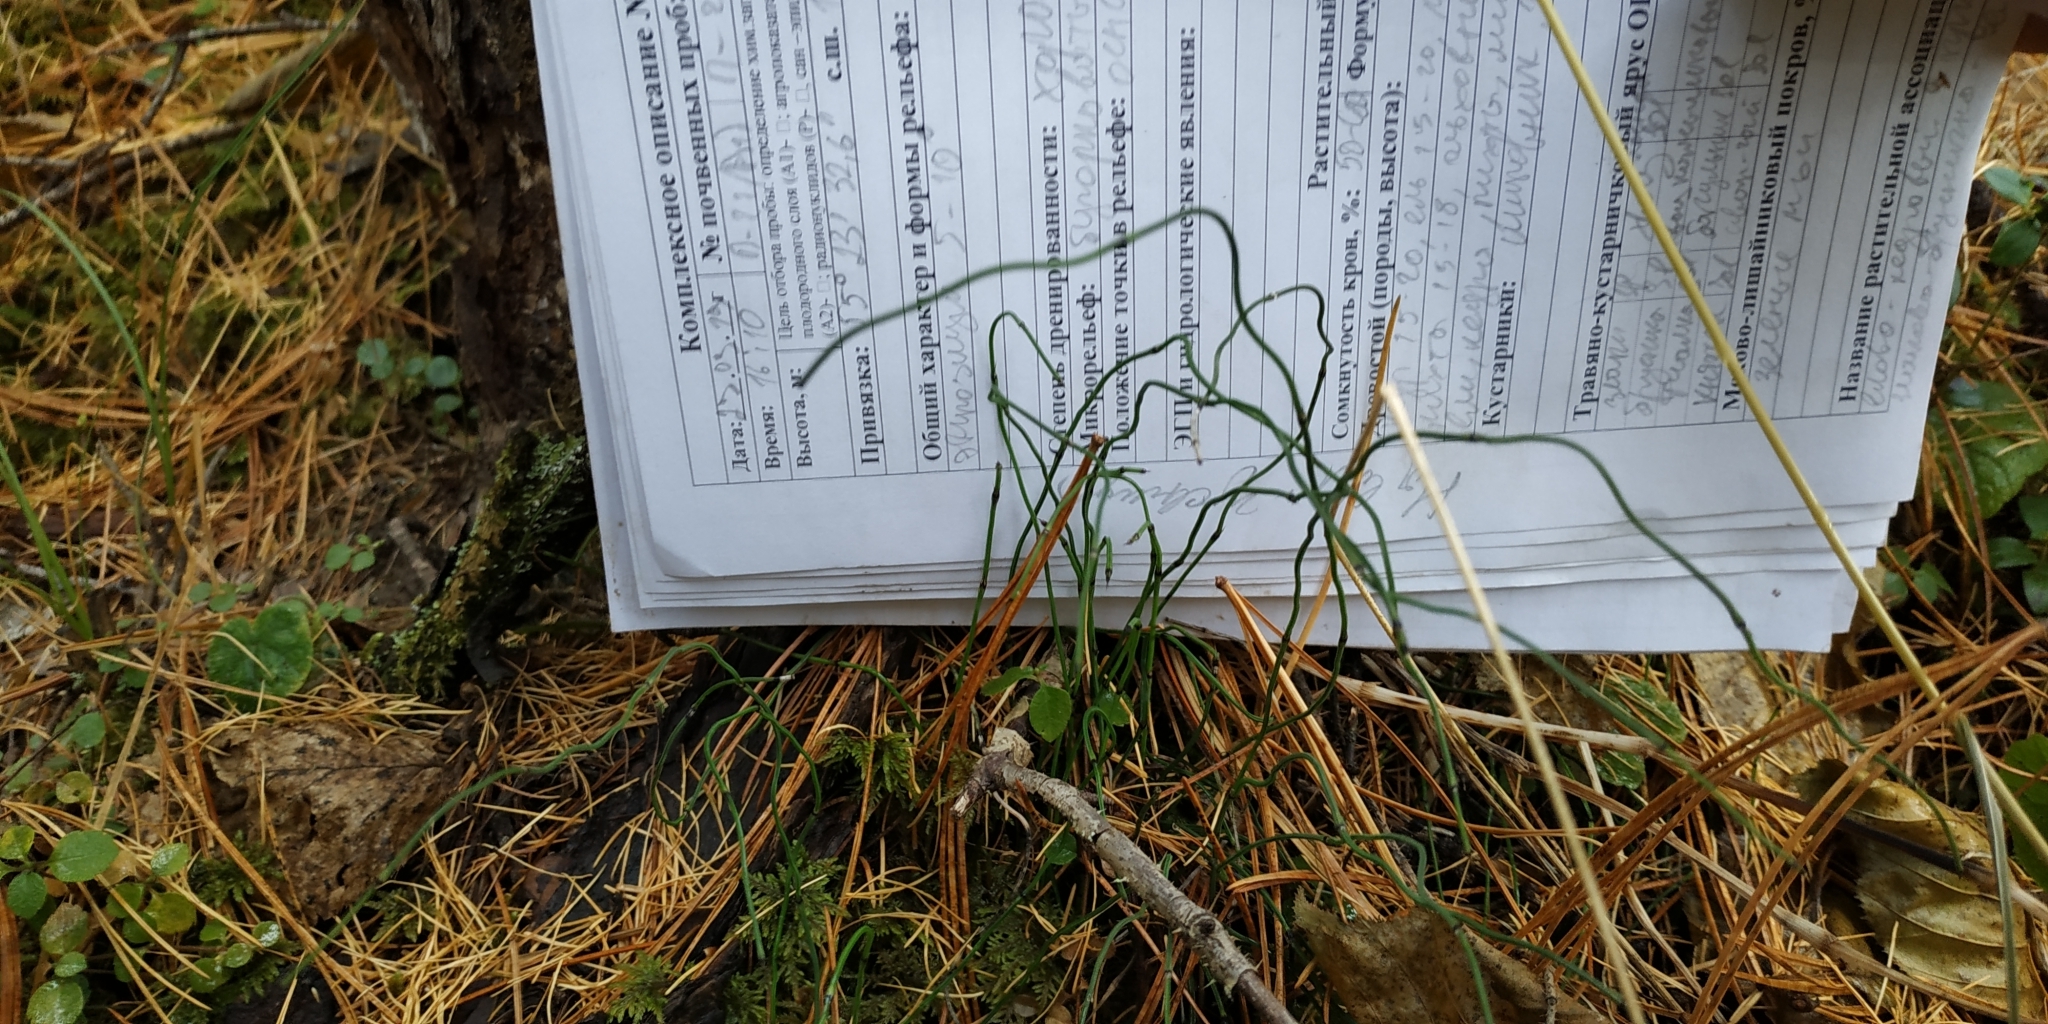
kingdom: Plantae
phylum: Tracheophyta
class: Polypodiopsida
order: Equisetales
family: Equisetaceae
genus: Equisetum
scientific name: Equisetum scirpoides
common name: Delicate horsetail
